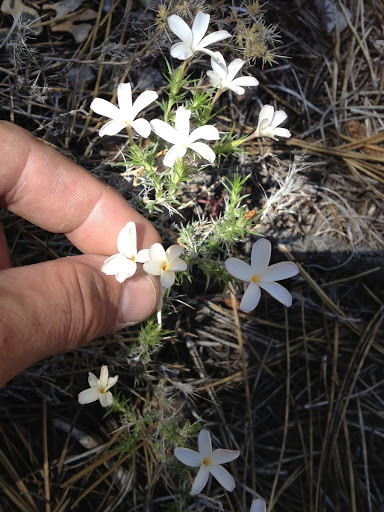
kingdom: Plantae
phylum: Tracheophyta
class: Magnoliopsida
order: Ericales
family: Polemoniaceae
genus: Linanthus
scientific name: Linanthus pungens
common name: Granite prickly phlox
